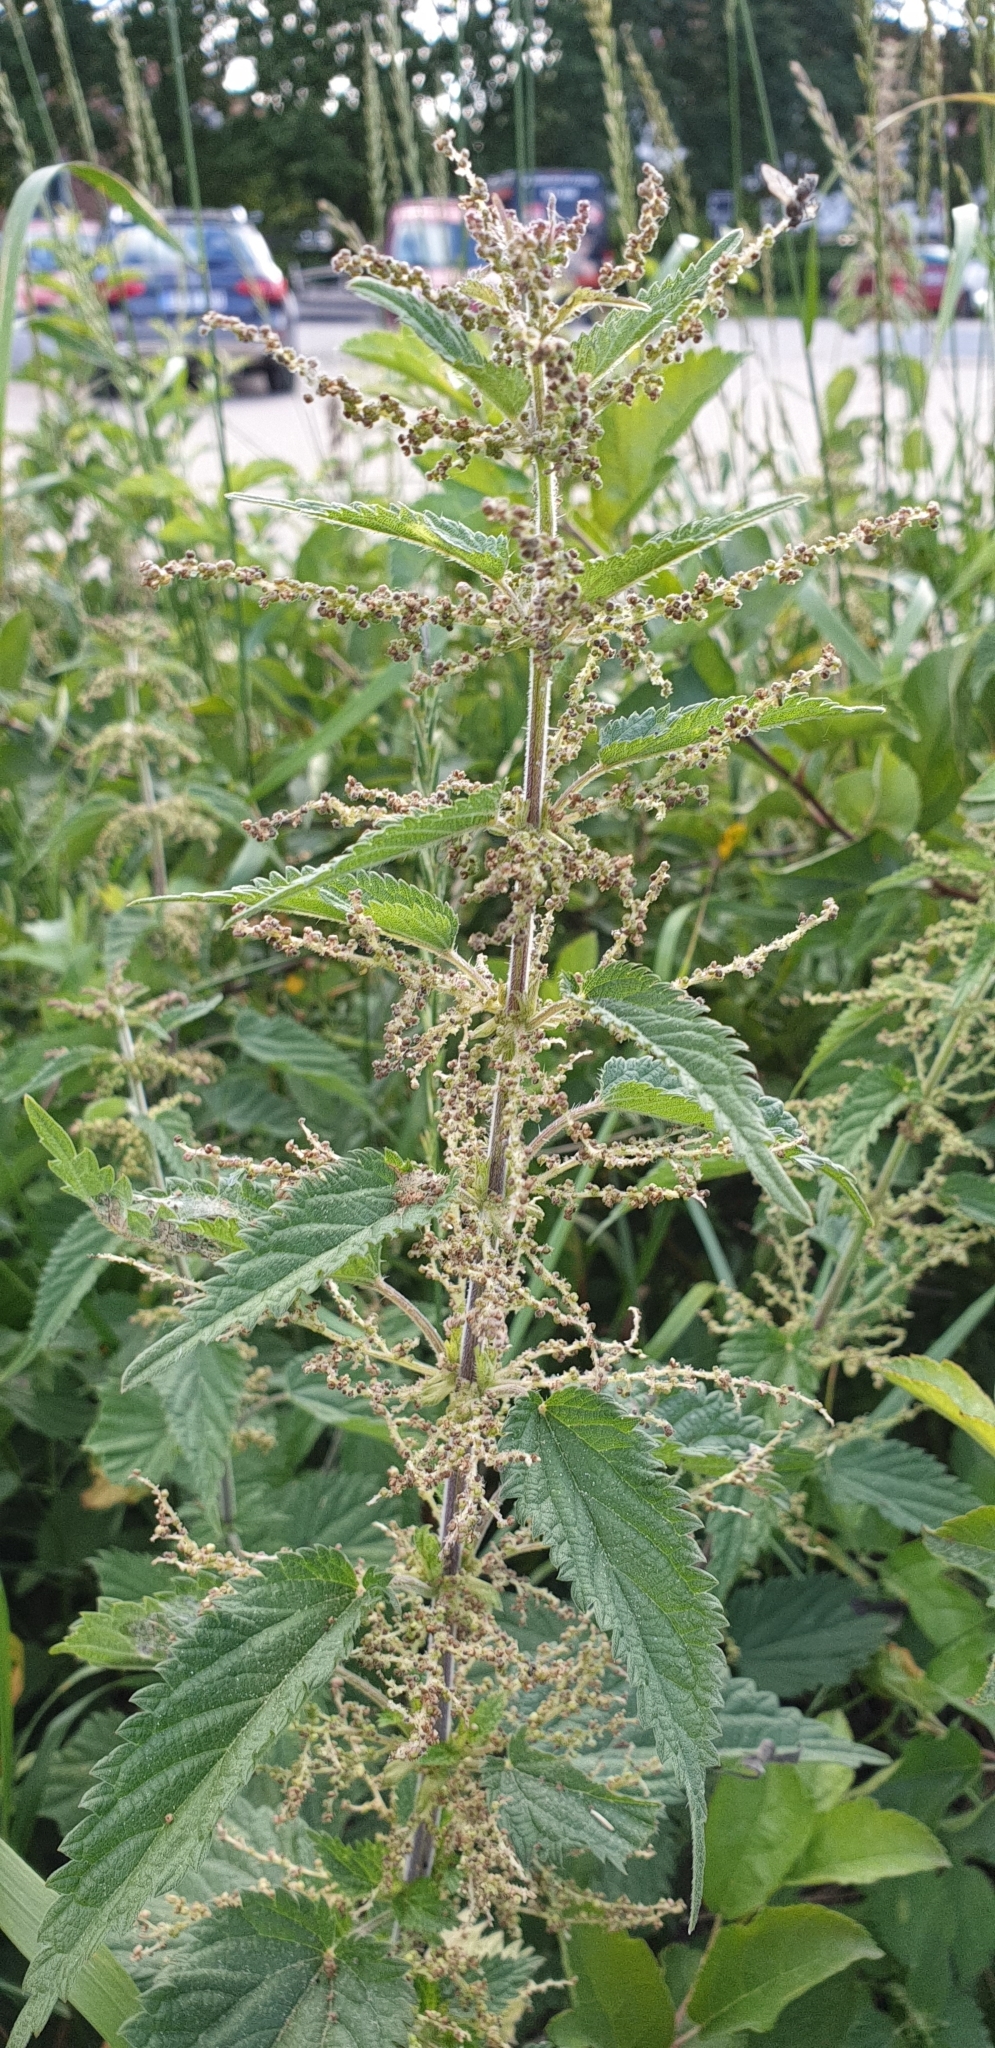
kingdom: Plantae
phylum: Tracheophyta
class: Magnoliopsida
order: Rosales
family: Urticaceae
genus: Urtica
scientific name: Urtica dioica
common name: Common nettle
